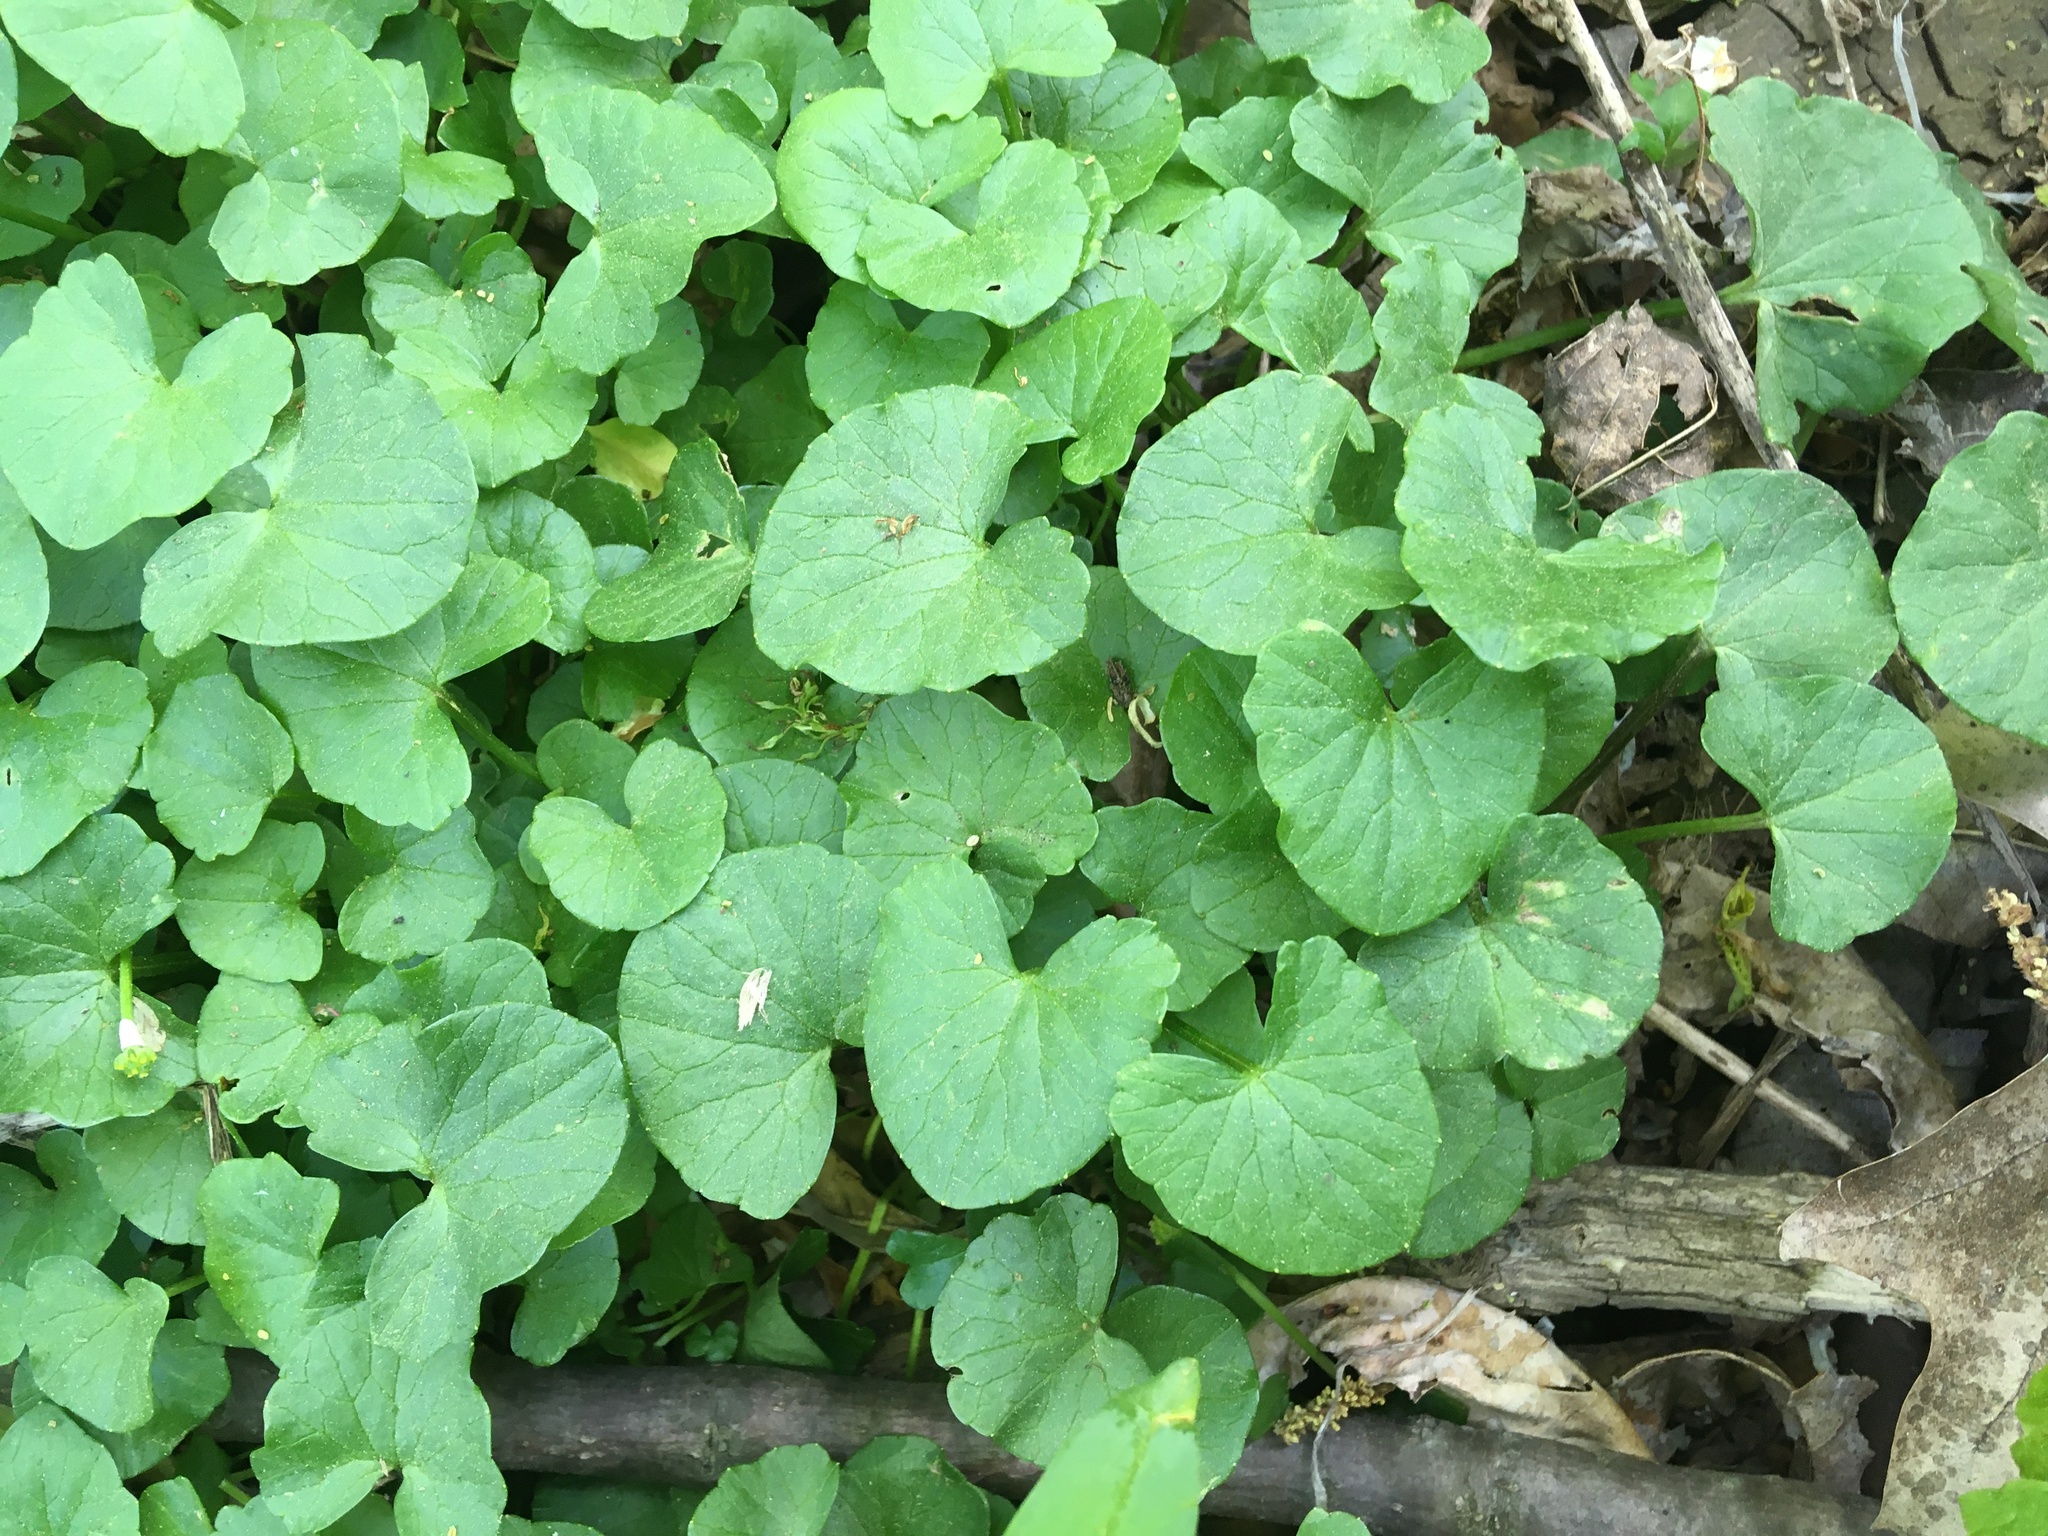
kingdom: Plantae
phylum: Tracheophyta
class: Magnoliopsida
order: Ranunculales
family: Ranunculaceae
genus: Ficaria
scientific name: Ficaria verna
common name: Lesser celandine
